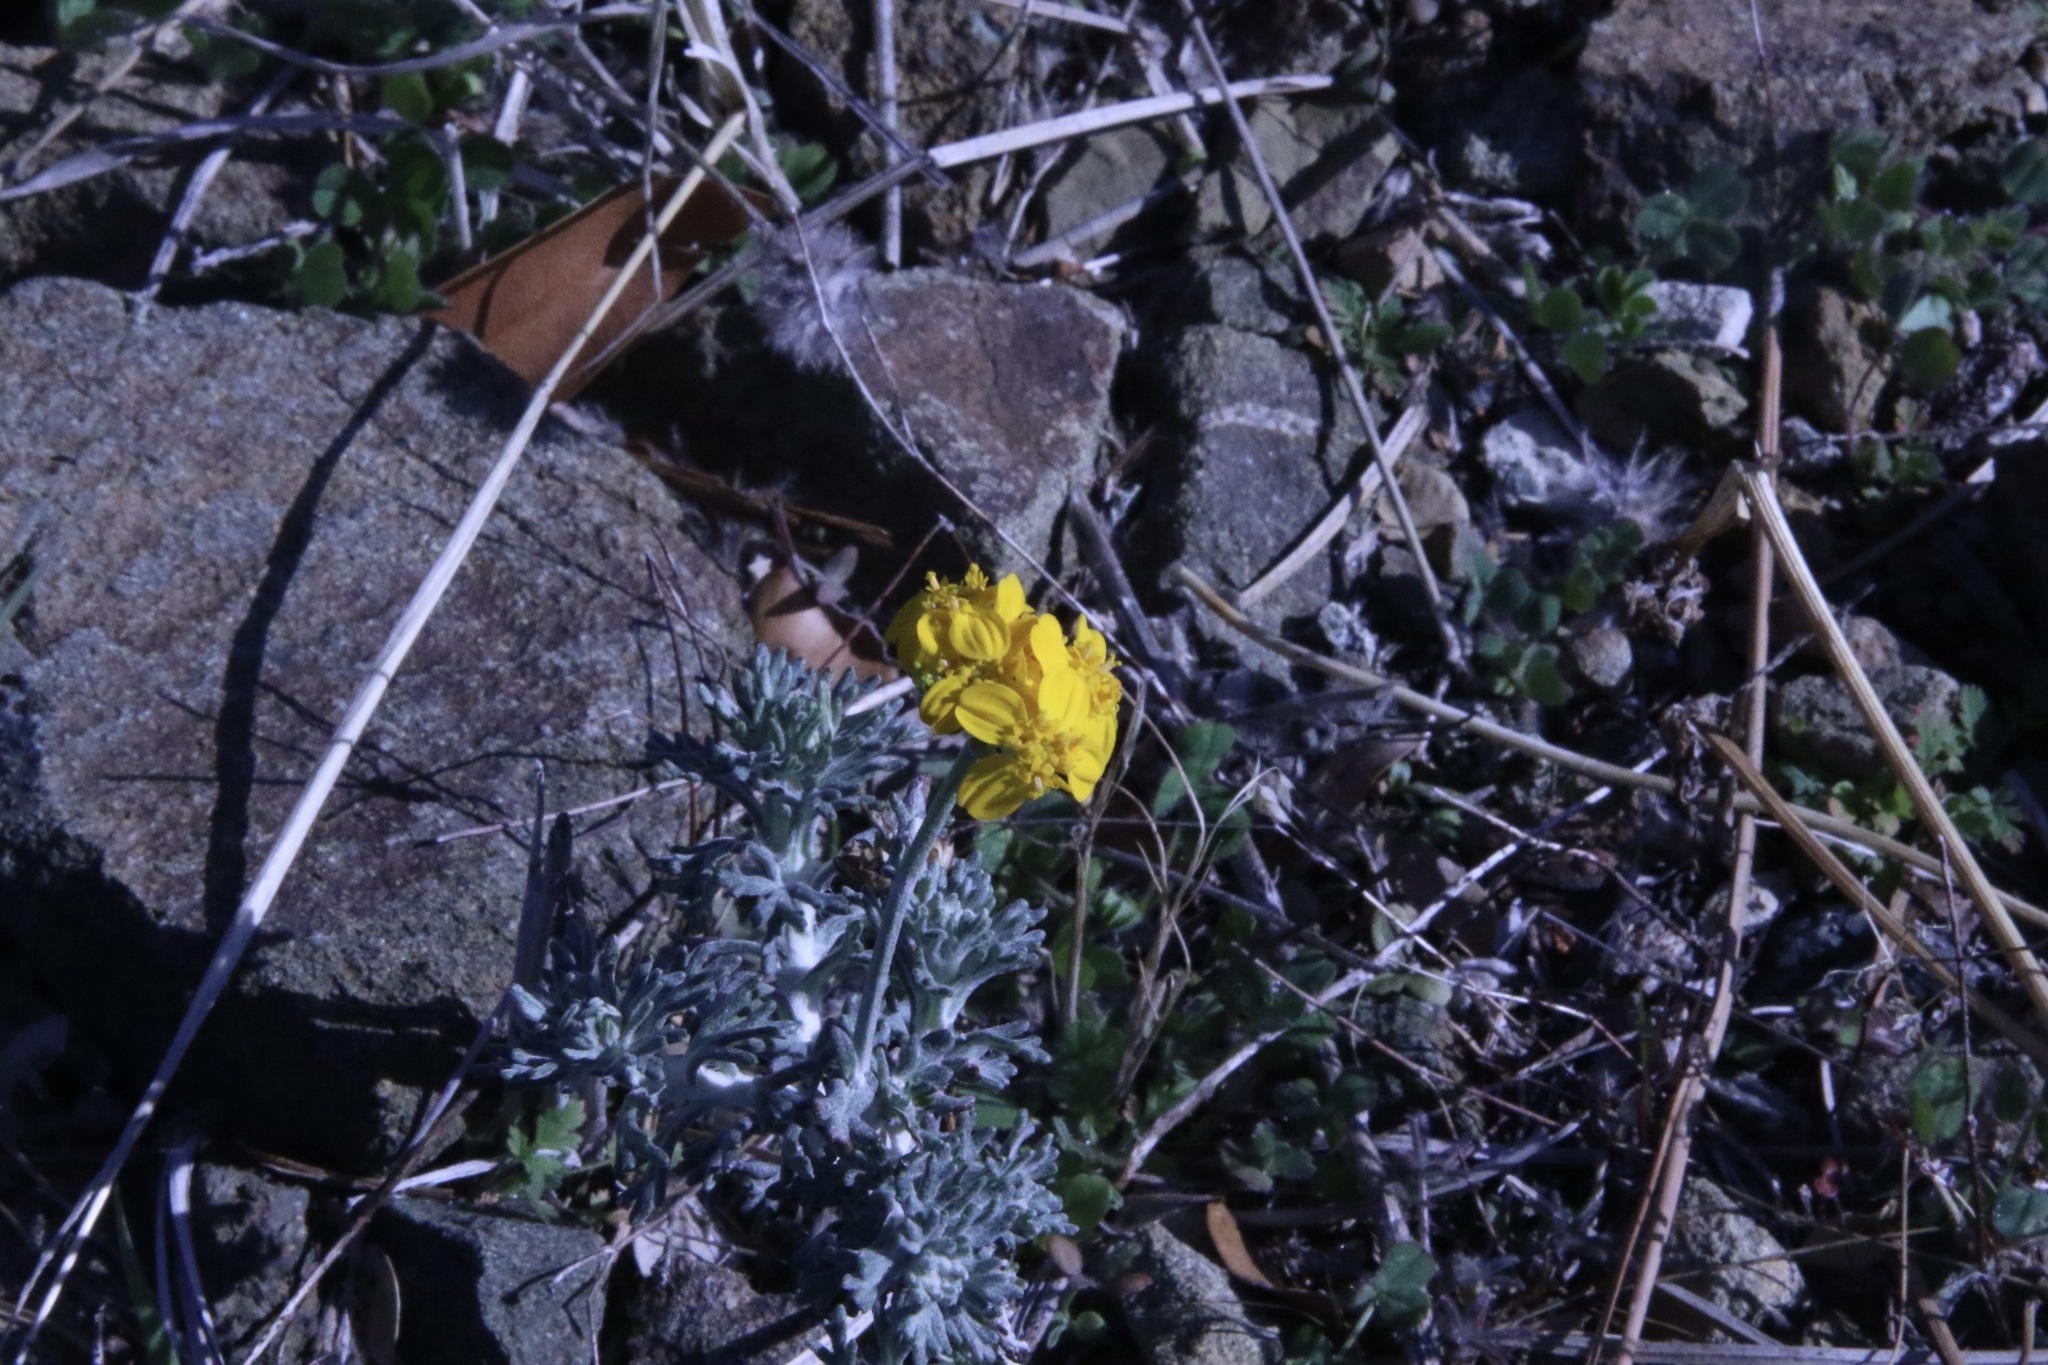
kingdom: Plantae
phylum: Tracheophyta
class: Magnoliopsida
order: Asterales
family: Asteraceae
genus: Eriophyllum
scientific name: Eriophyllum confertiflorum
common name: Golden-yarrow
